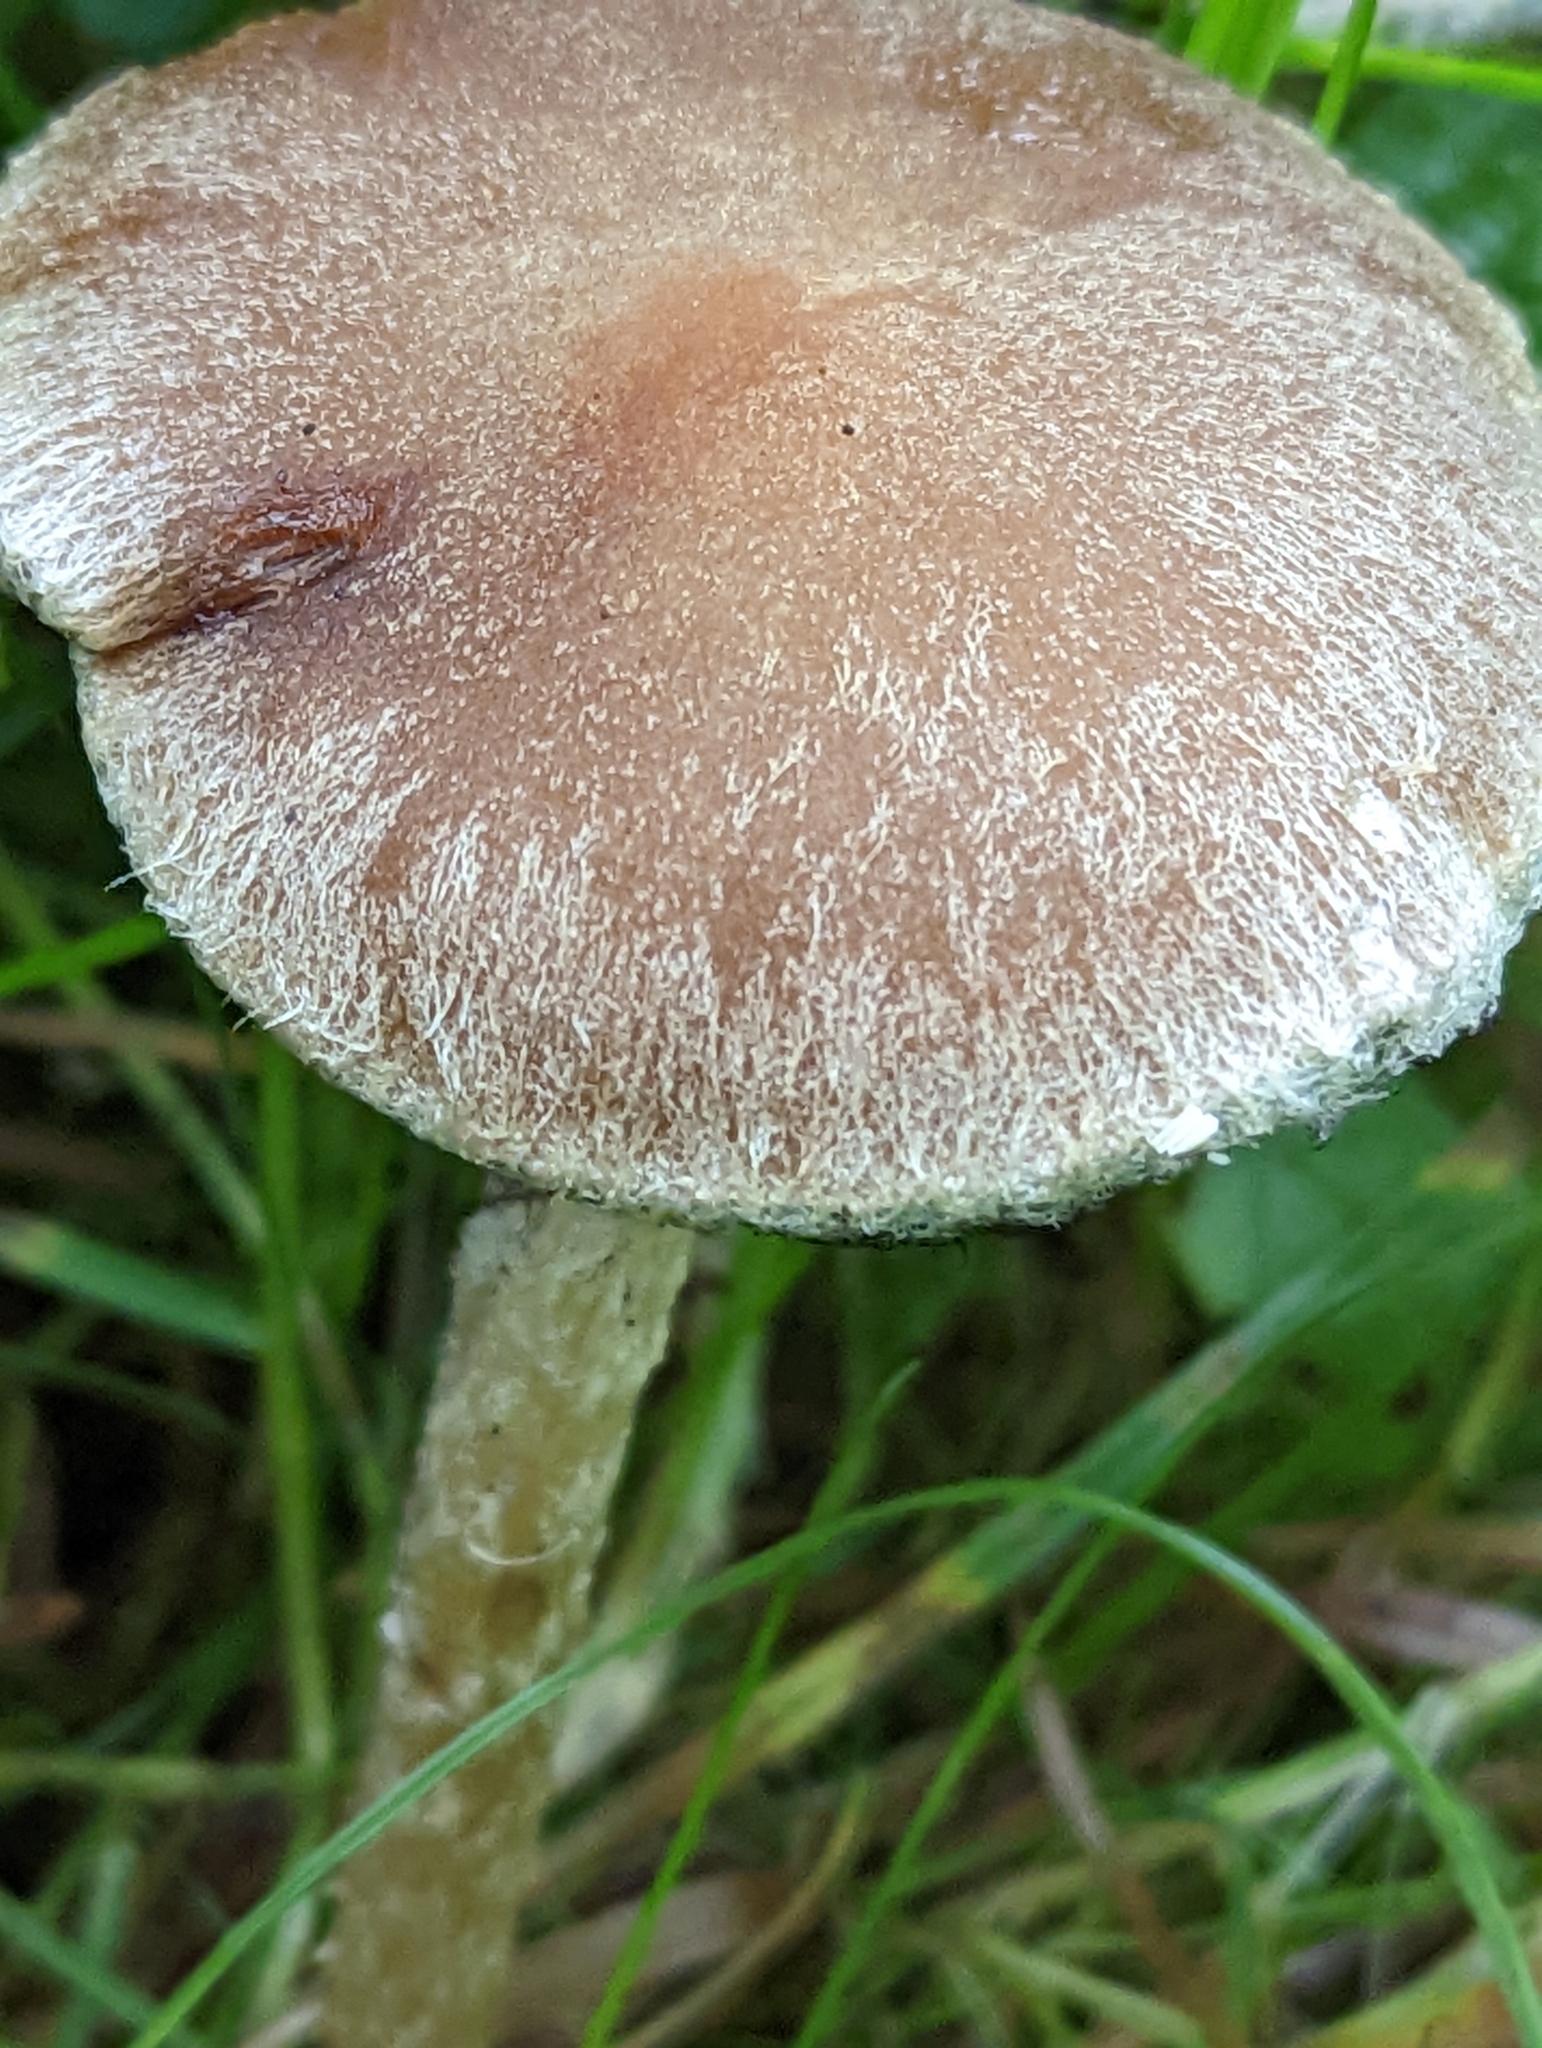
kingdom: Fungi
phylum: Basidiomycota
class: Agaricomycetes
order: Agaricales
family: Psathyrellaceae
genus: Lacrymaria
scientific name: Lacrymaria lacrymabunda
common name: Weeping widow
